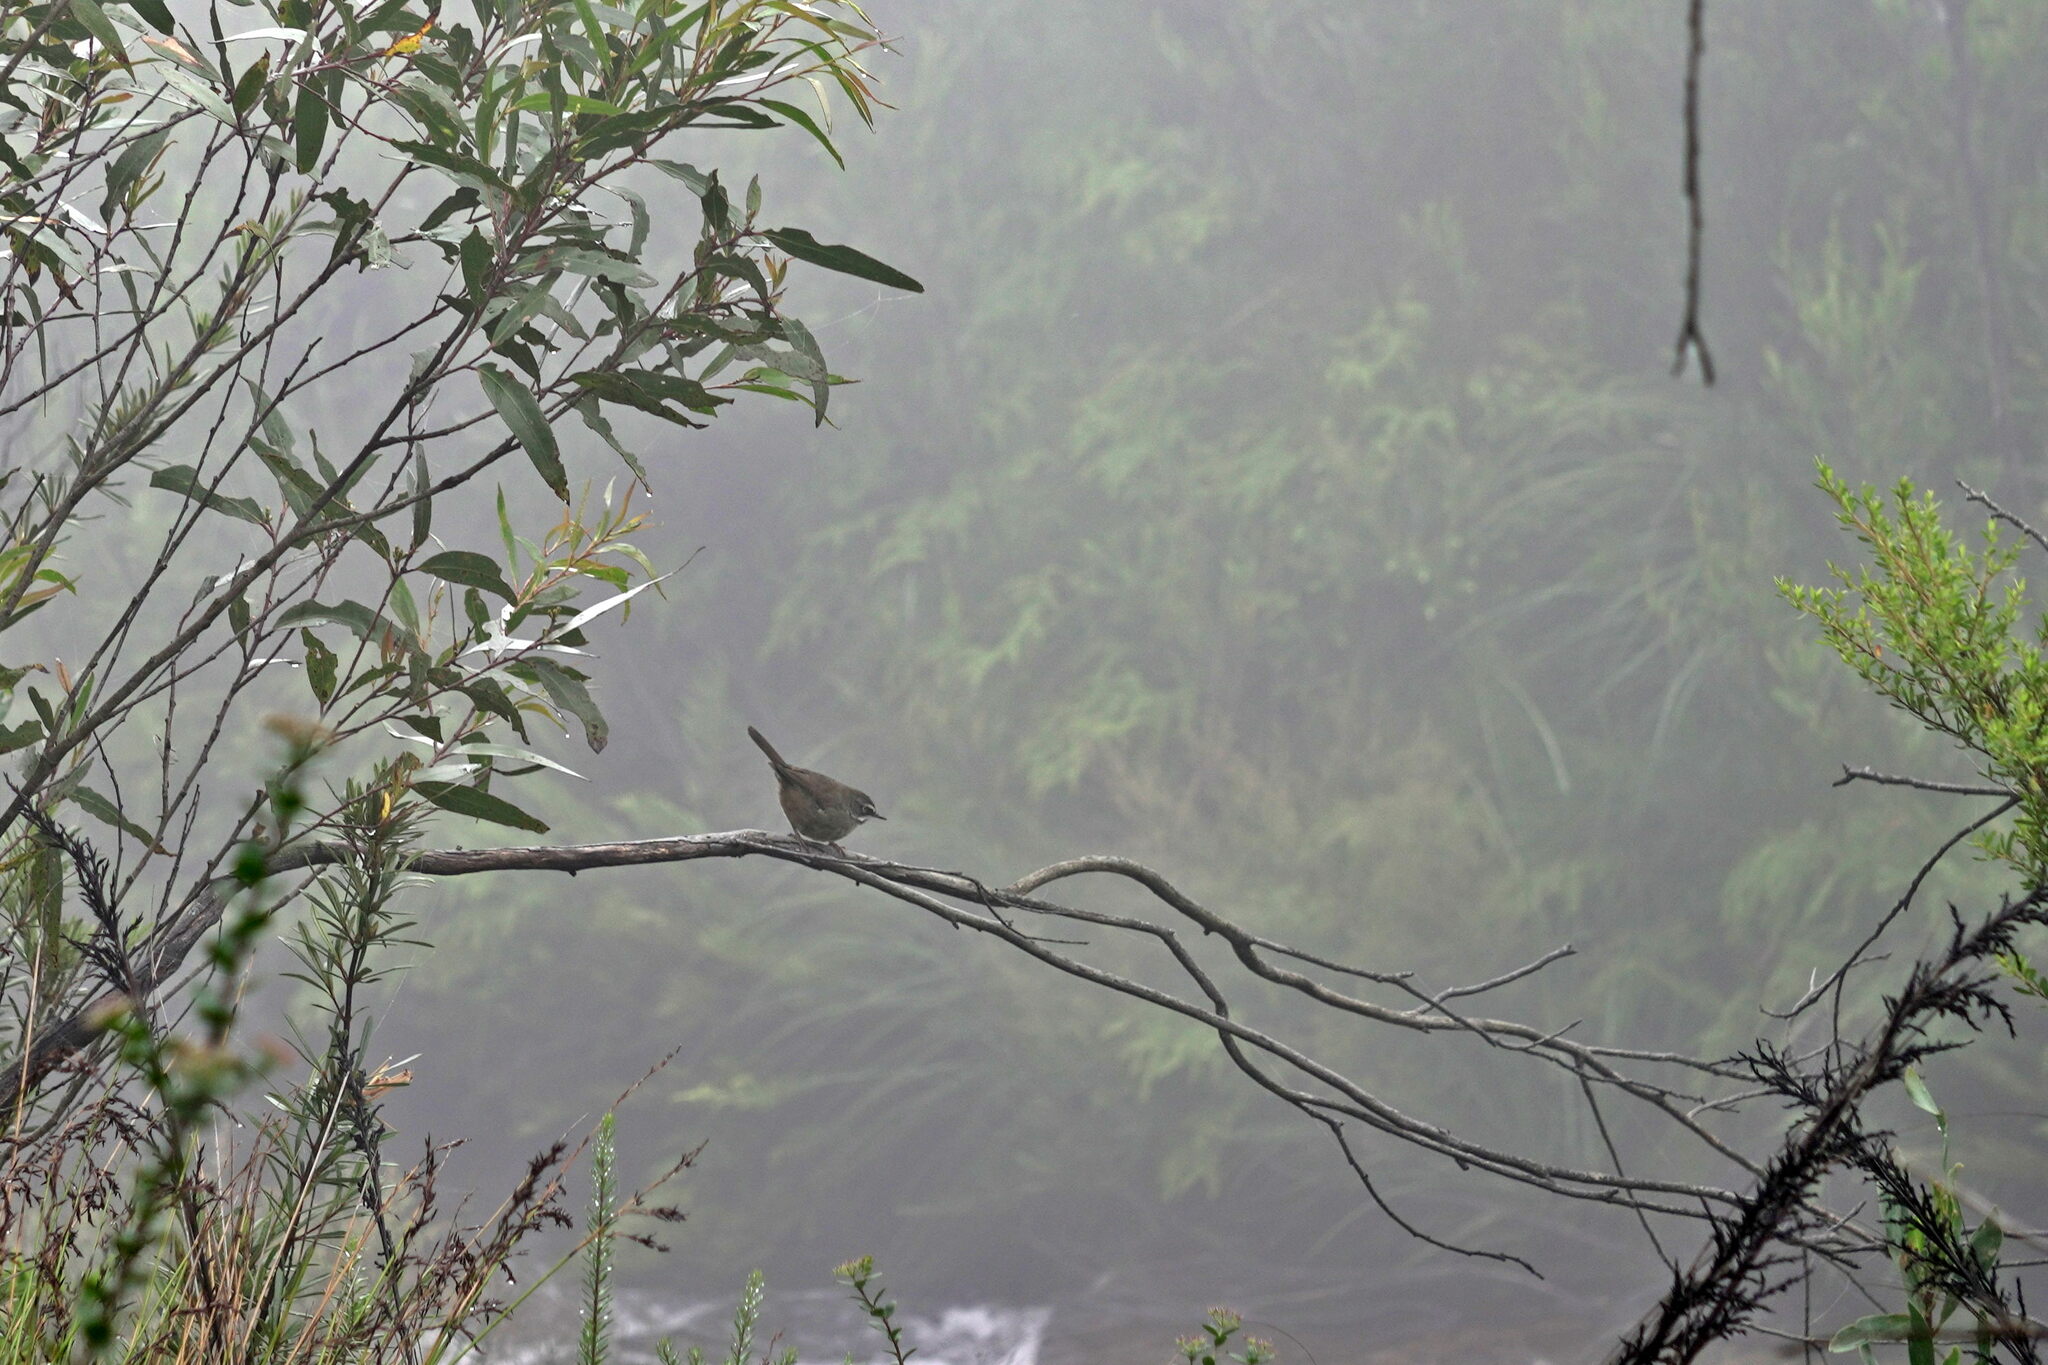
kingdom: Animalia
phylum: Chordata
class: Aves
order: Passeriformes
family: Acanthizidae
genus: Sericornis
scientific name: Sericornis frontalis
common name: White-browed scrubwren
